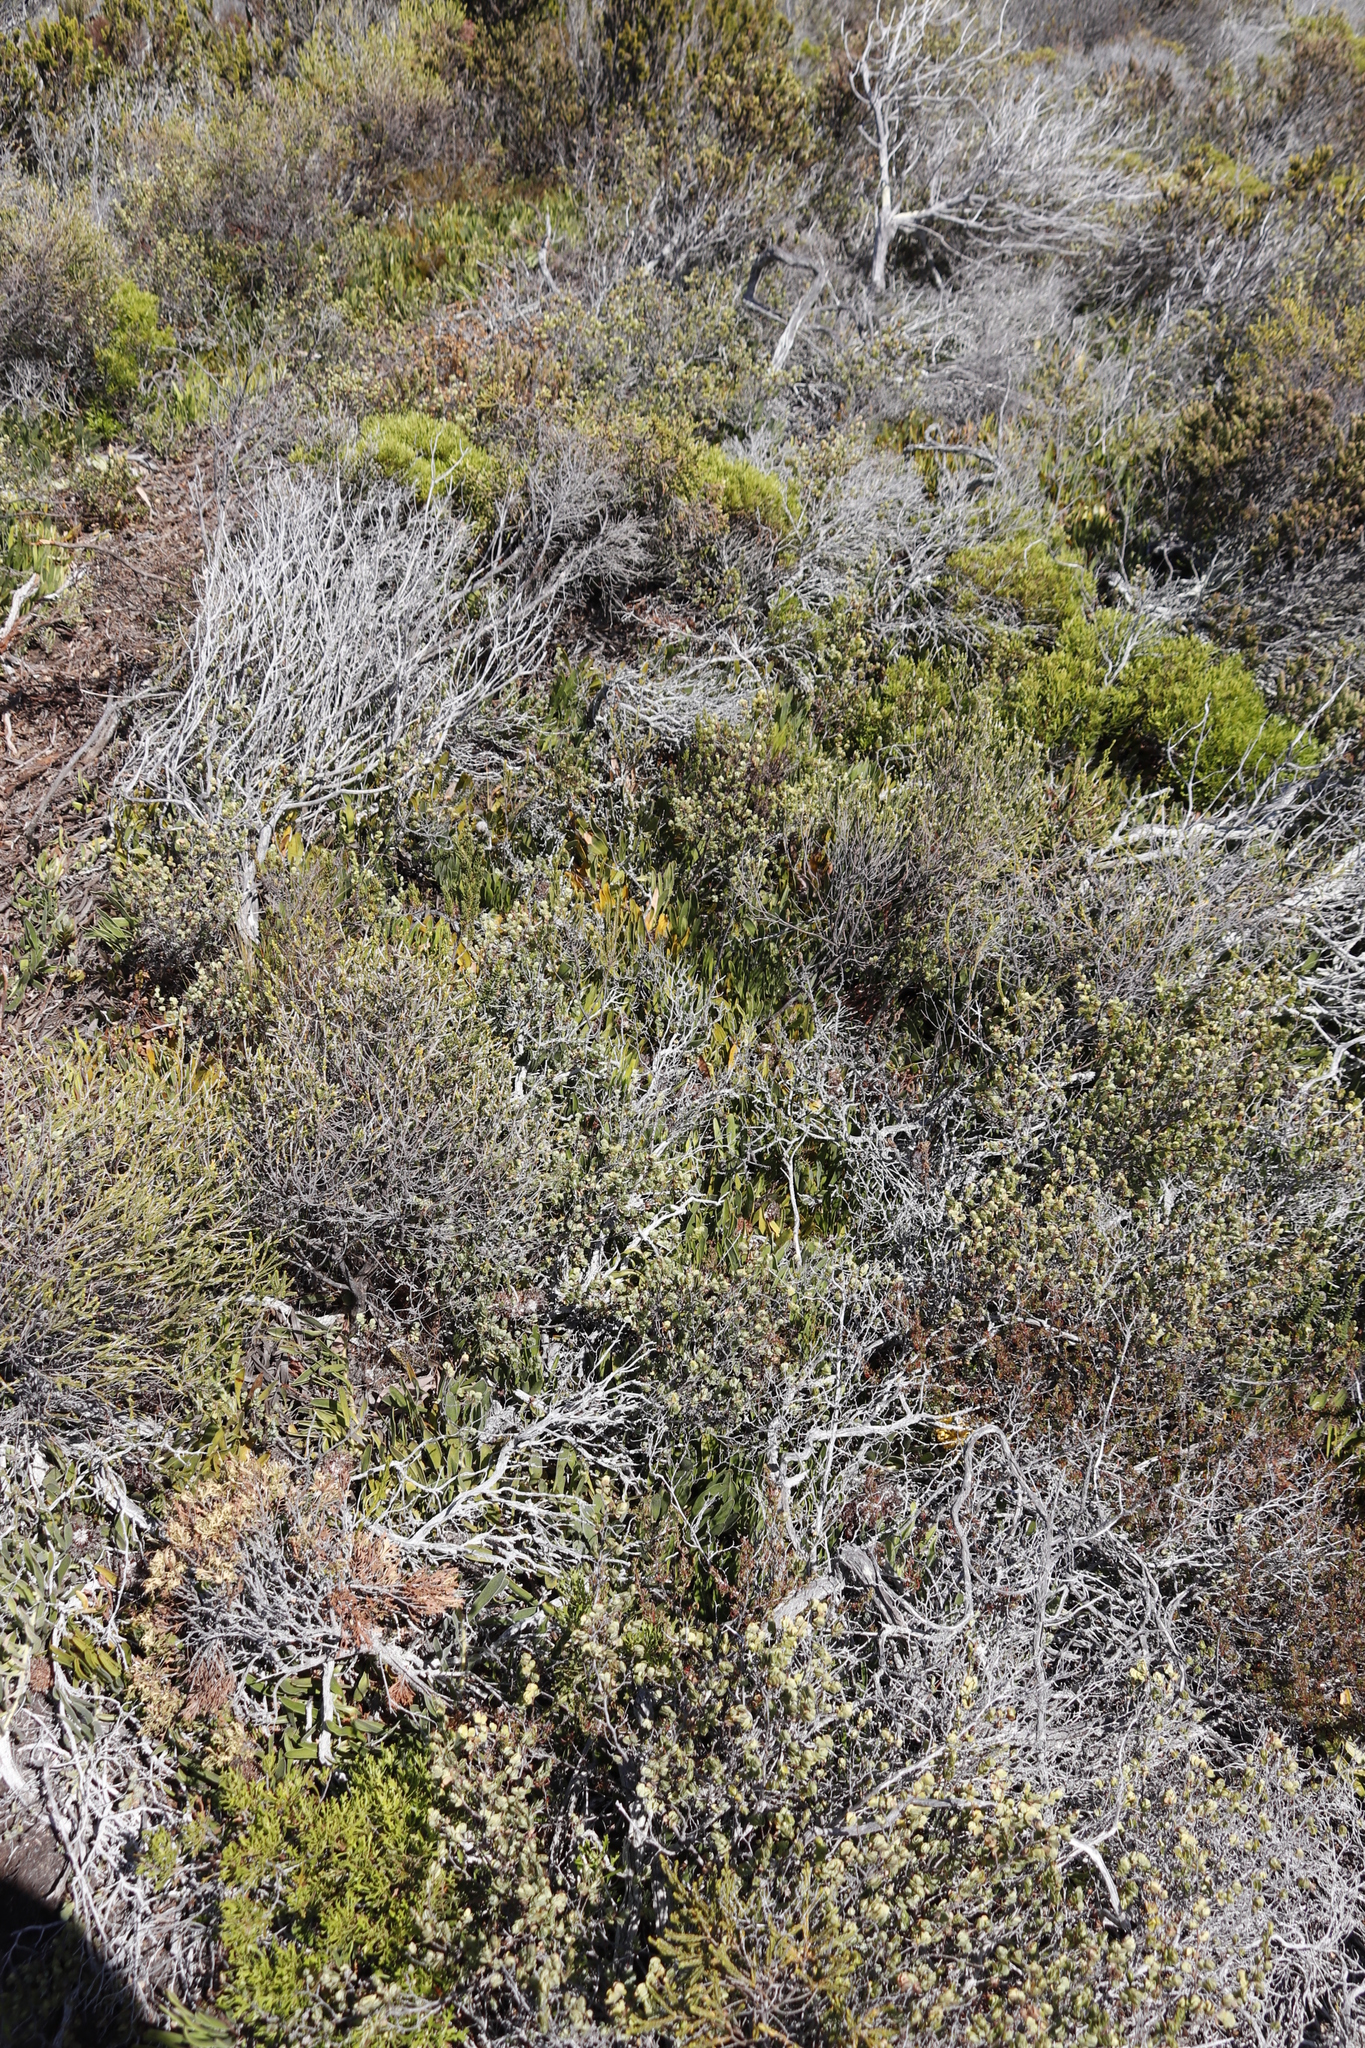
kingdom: Plantae
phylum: Tracheophyta
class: Magnoliopsida
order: Proteales
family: Proteaceae
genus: Leucospermum
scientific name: Leucospermum hypophyllocarpodendron
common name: Snakestem pincushion
